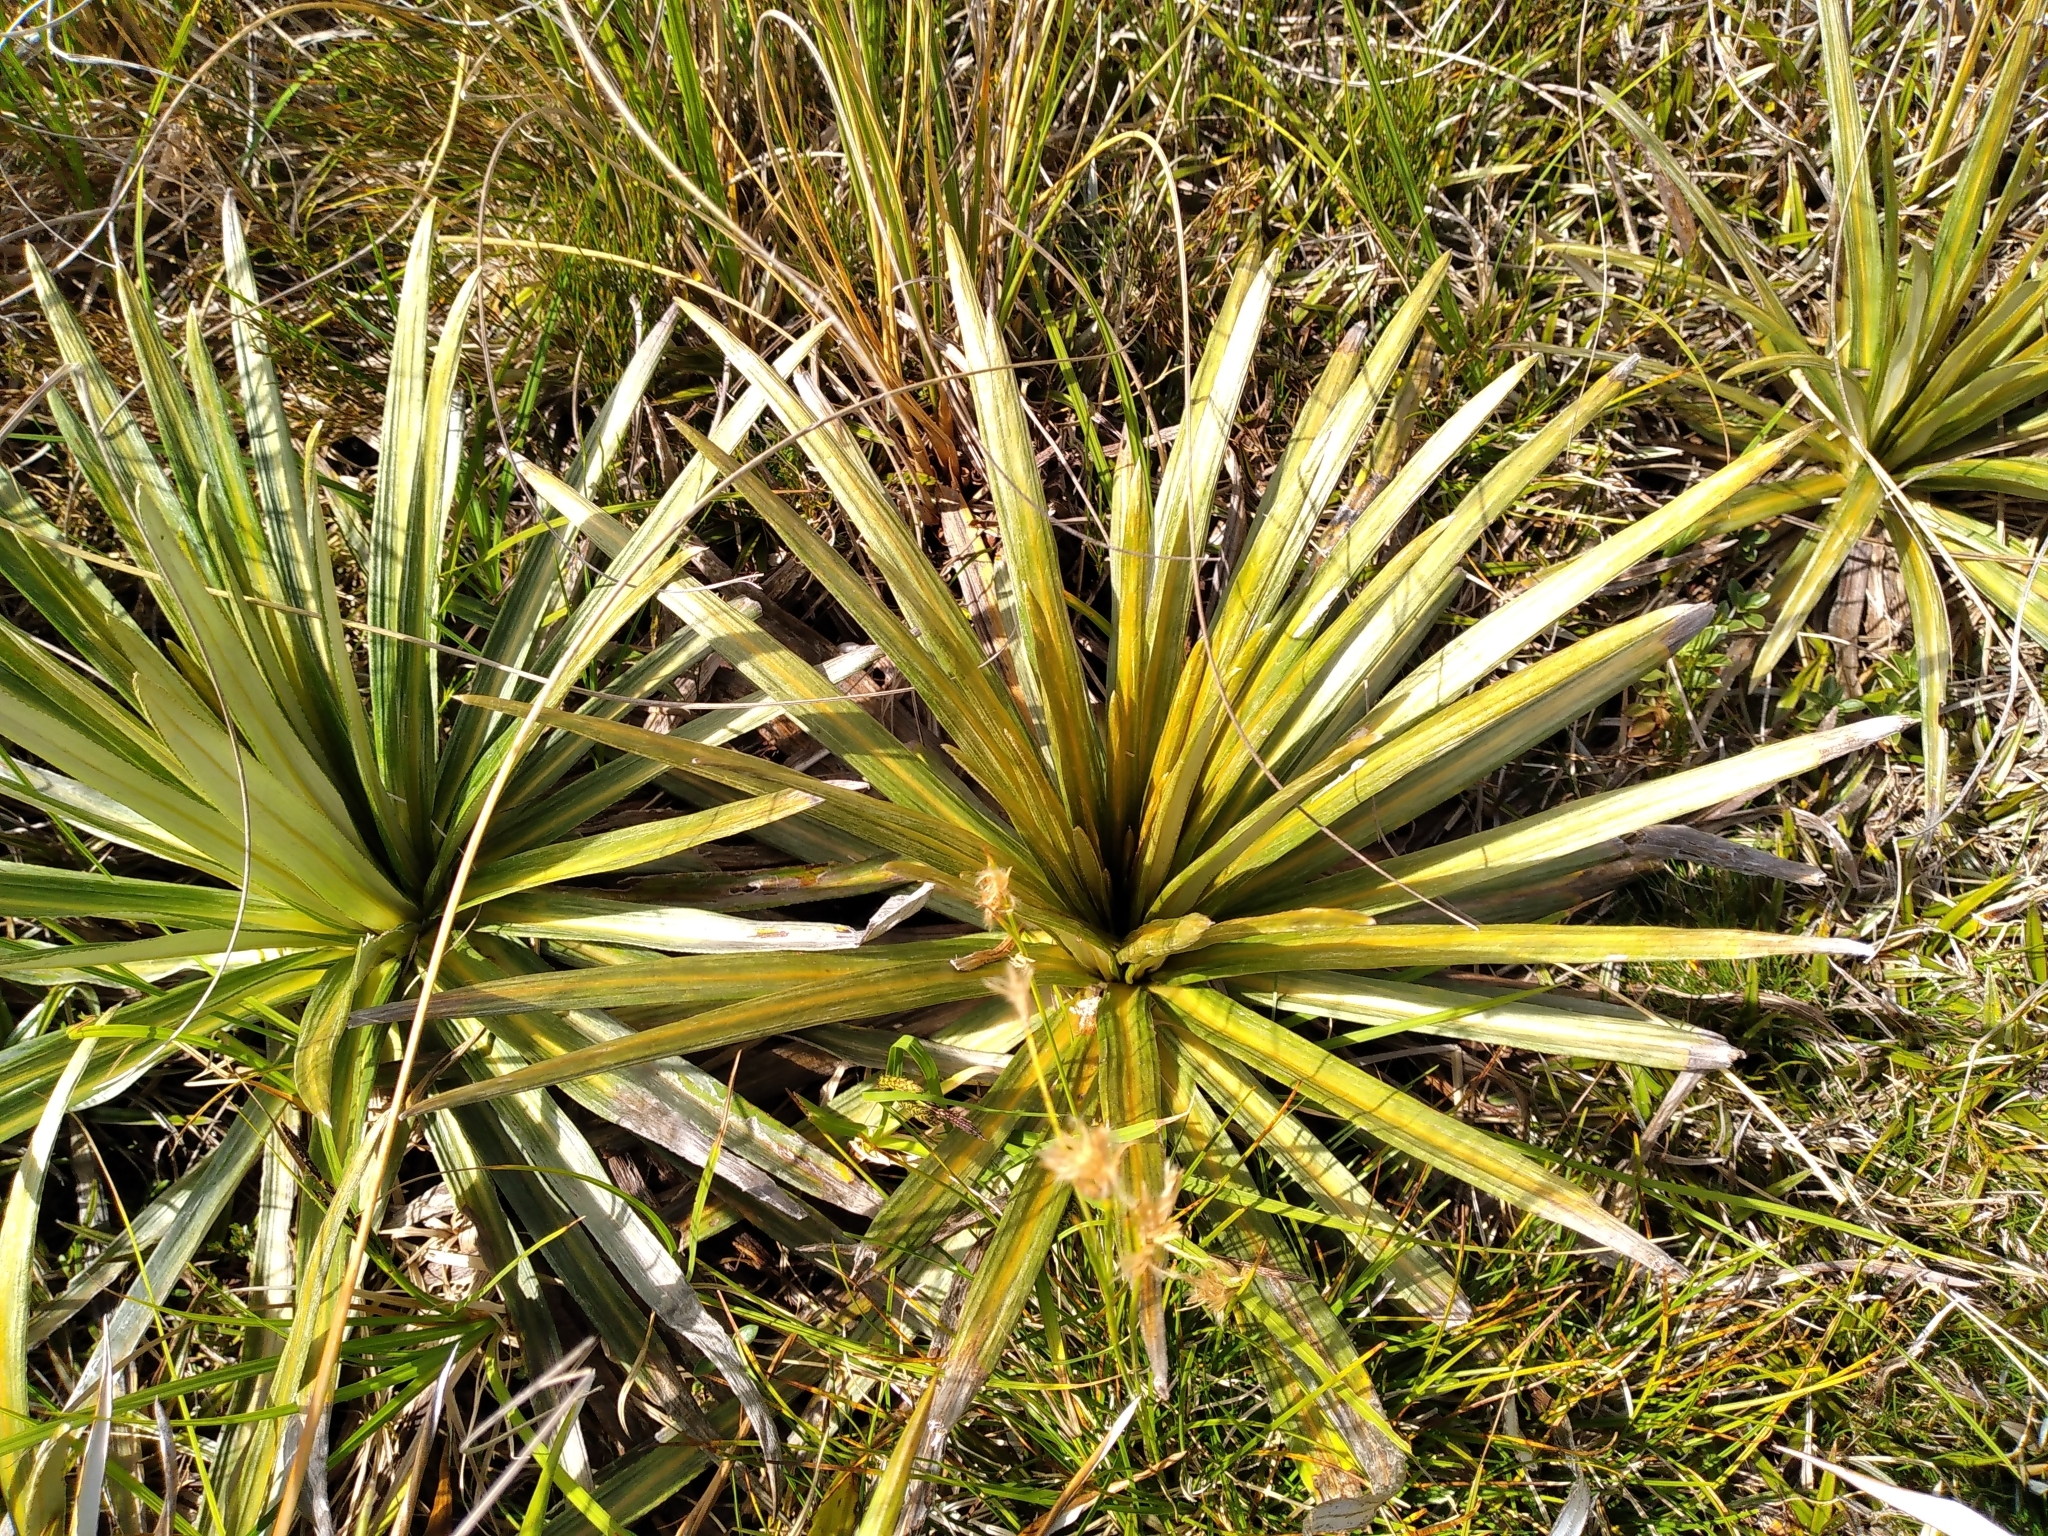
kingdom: Plantae
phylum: Tracheophyta
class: Magnoliopsida
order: Asterales
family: Asteraceae
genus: Celmisia
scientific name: Celmisia armstrongii
